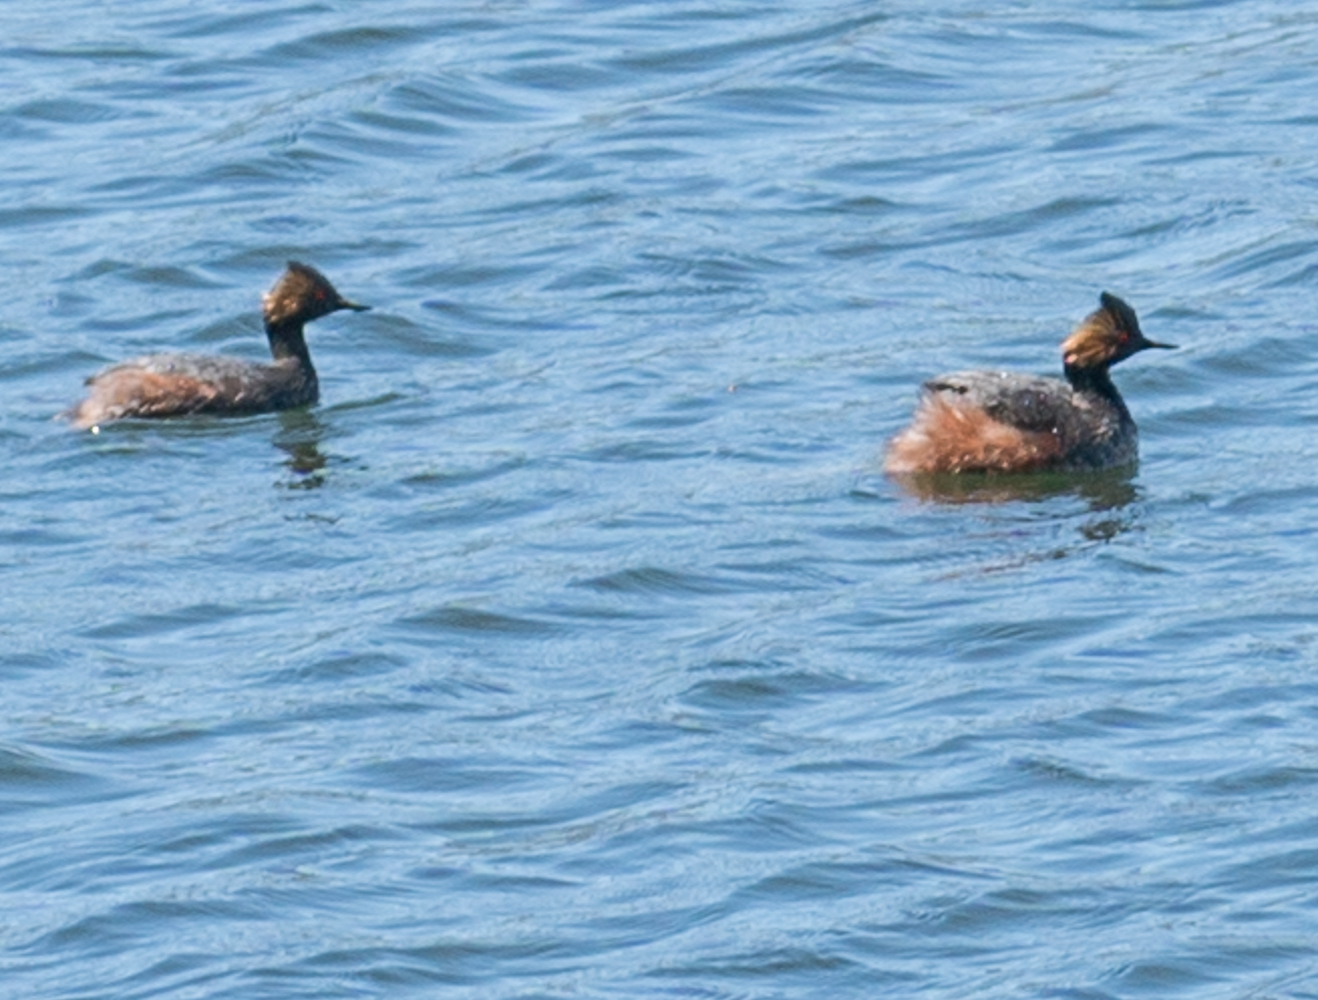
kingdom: Animalia
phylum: Chordata
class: Aves
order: Podicipediformes
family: Podicipedidae
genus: Podiceps
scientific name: Podiceps nigricollis
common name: Black-necked grebe
